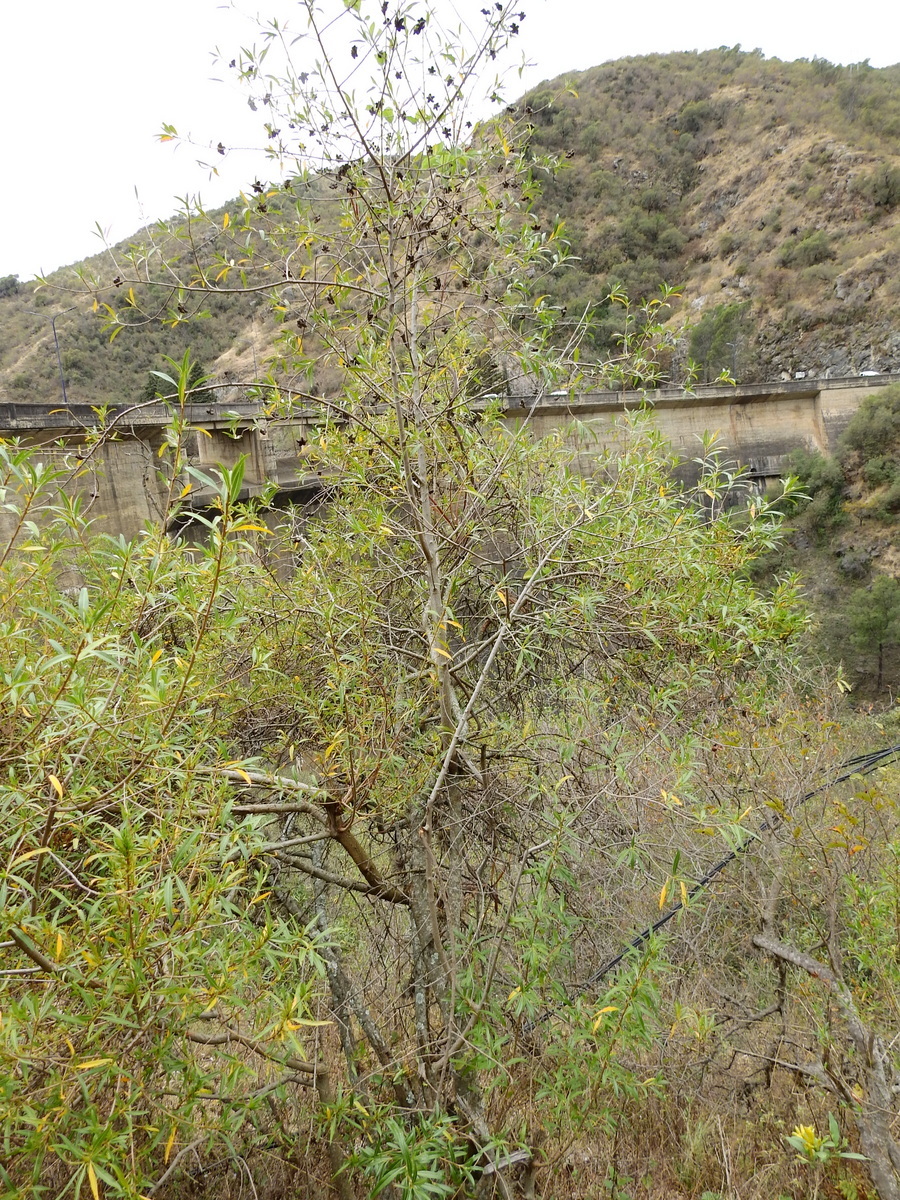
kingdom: Plantae
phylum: Tracheophyta
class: Magnoliopsida
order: Rosales
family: Rosaceae
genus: Kageneckia
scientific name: Kageneckia lanceolata
